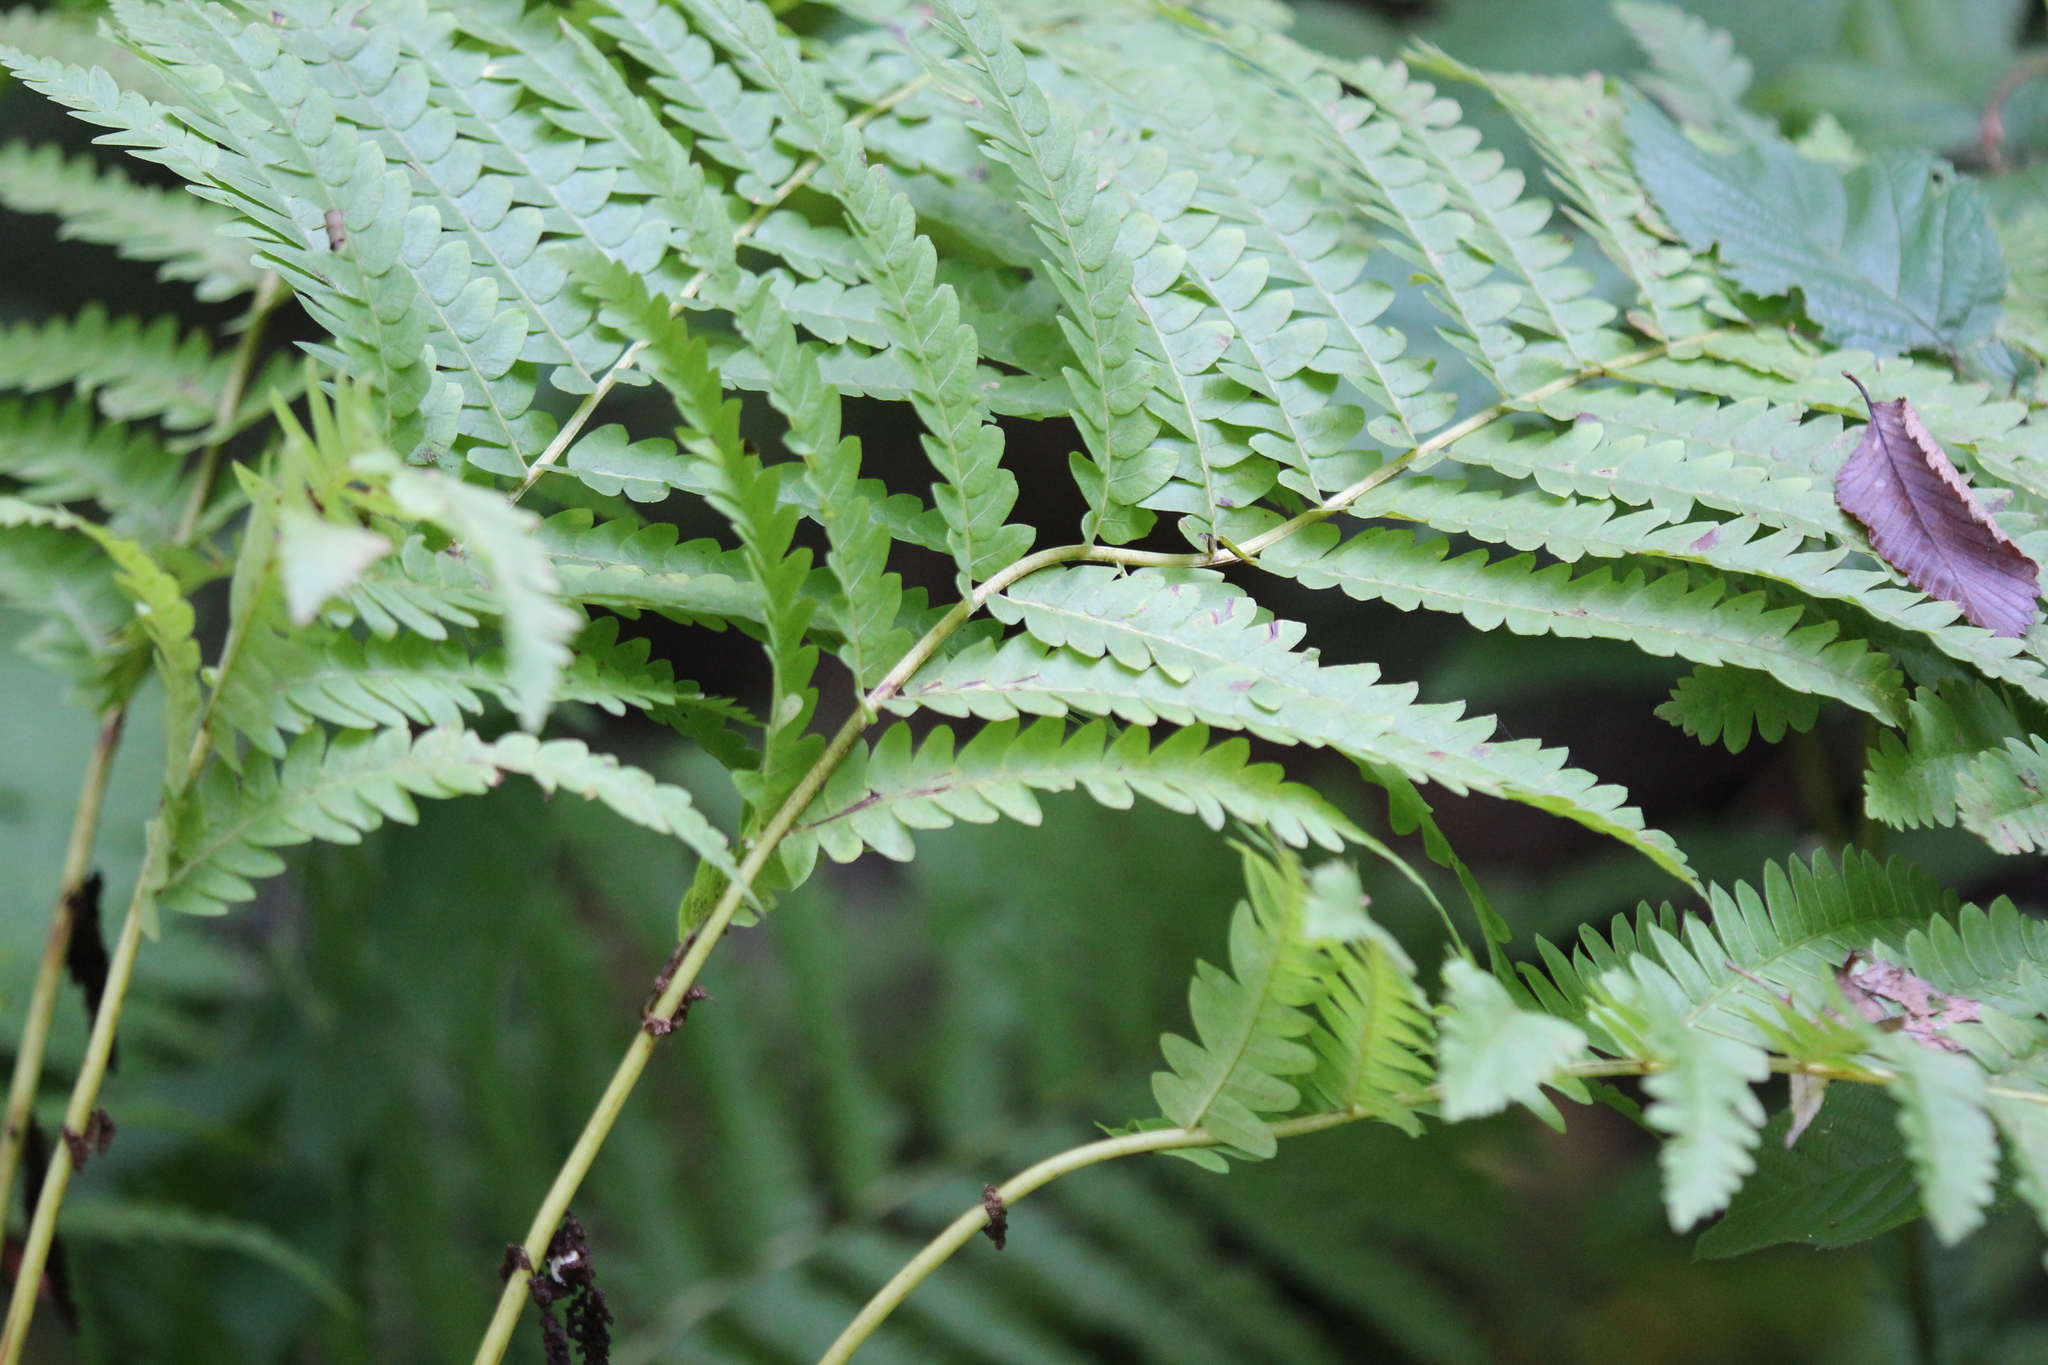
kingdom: Plantae
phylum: Tracheophyta
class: Polypodiopsida
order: Osmundales
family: Osmundaceae
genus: Claytosmunda
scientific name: Claytosmunda claytoniana
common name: Clayton's fern
